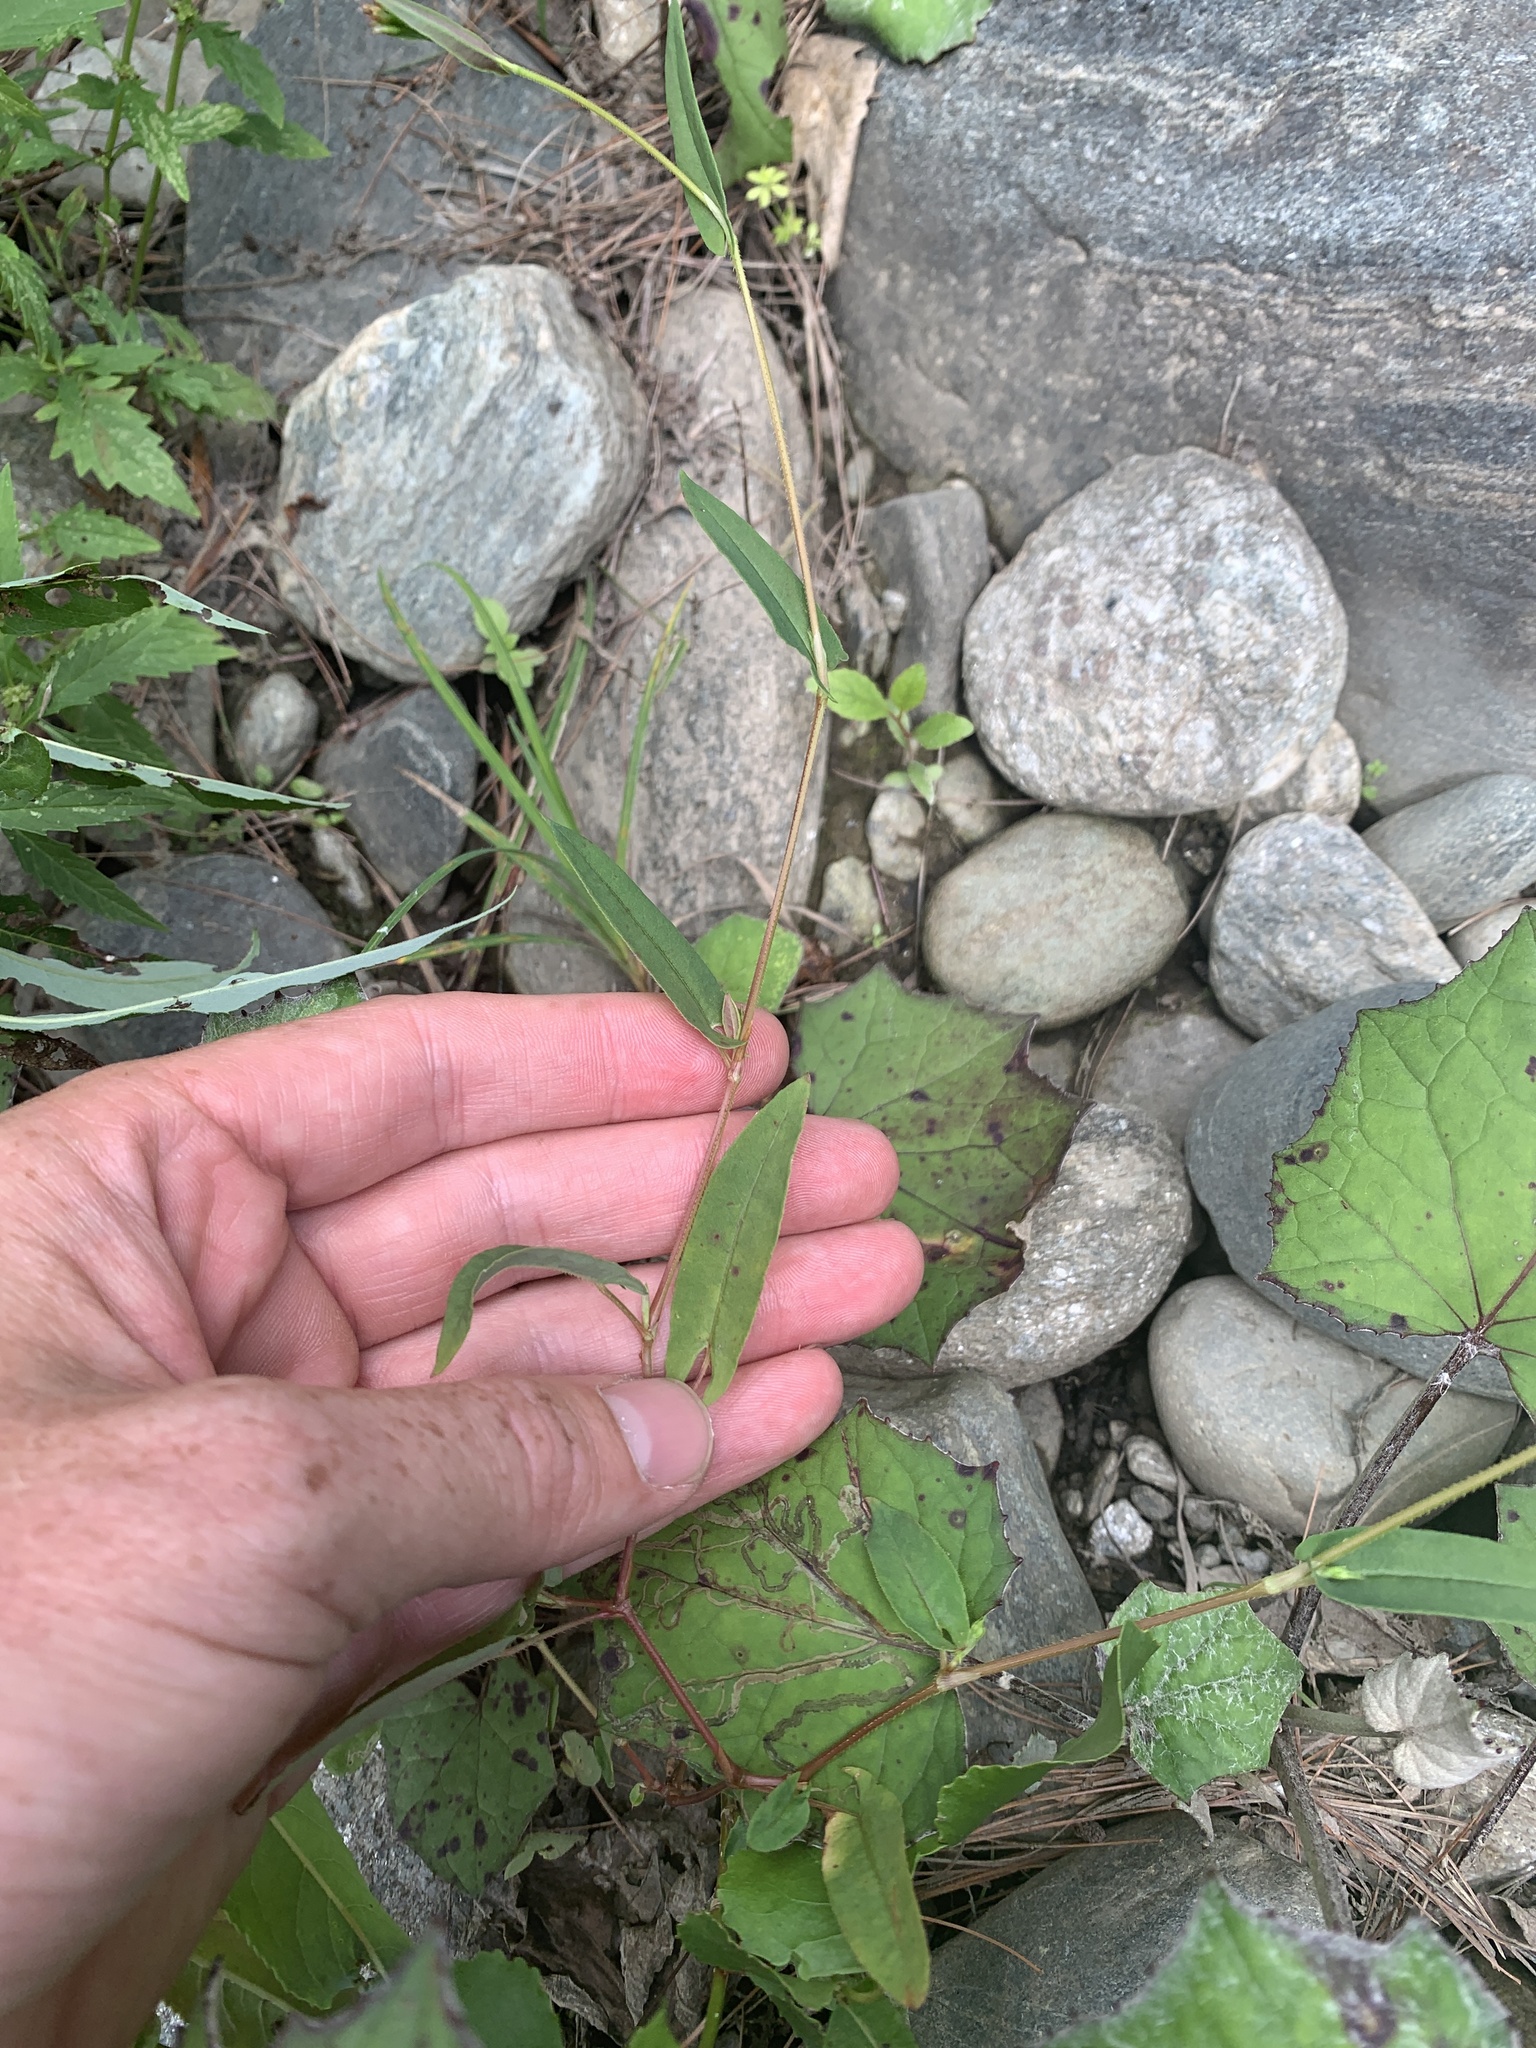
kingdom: Plantae
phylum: Tracheophyta
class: Magnoliopsida
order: Caryophyllales
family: Polygonaceae
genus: Persicaria
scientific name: Persicaria sagittata
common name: American tearthumb
